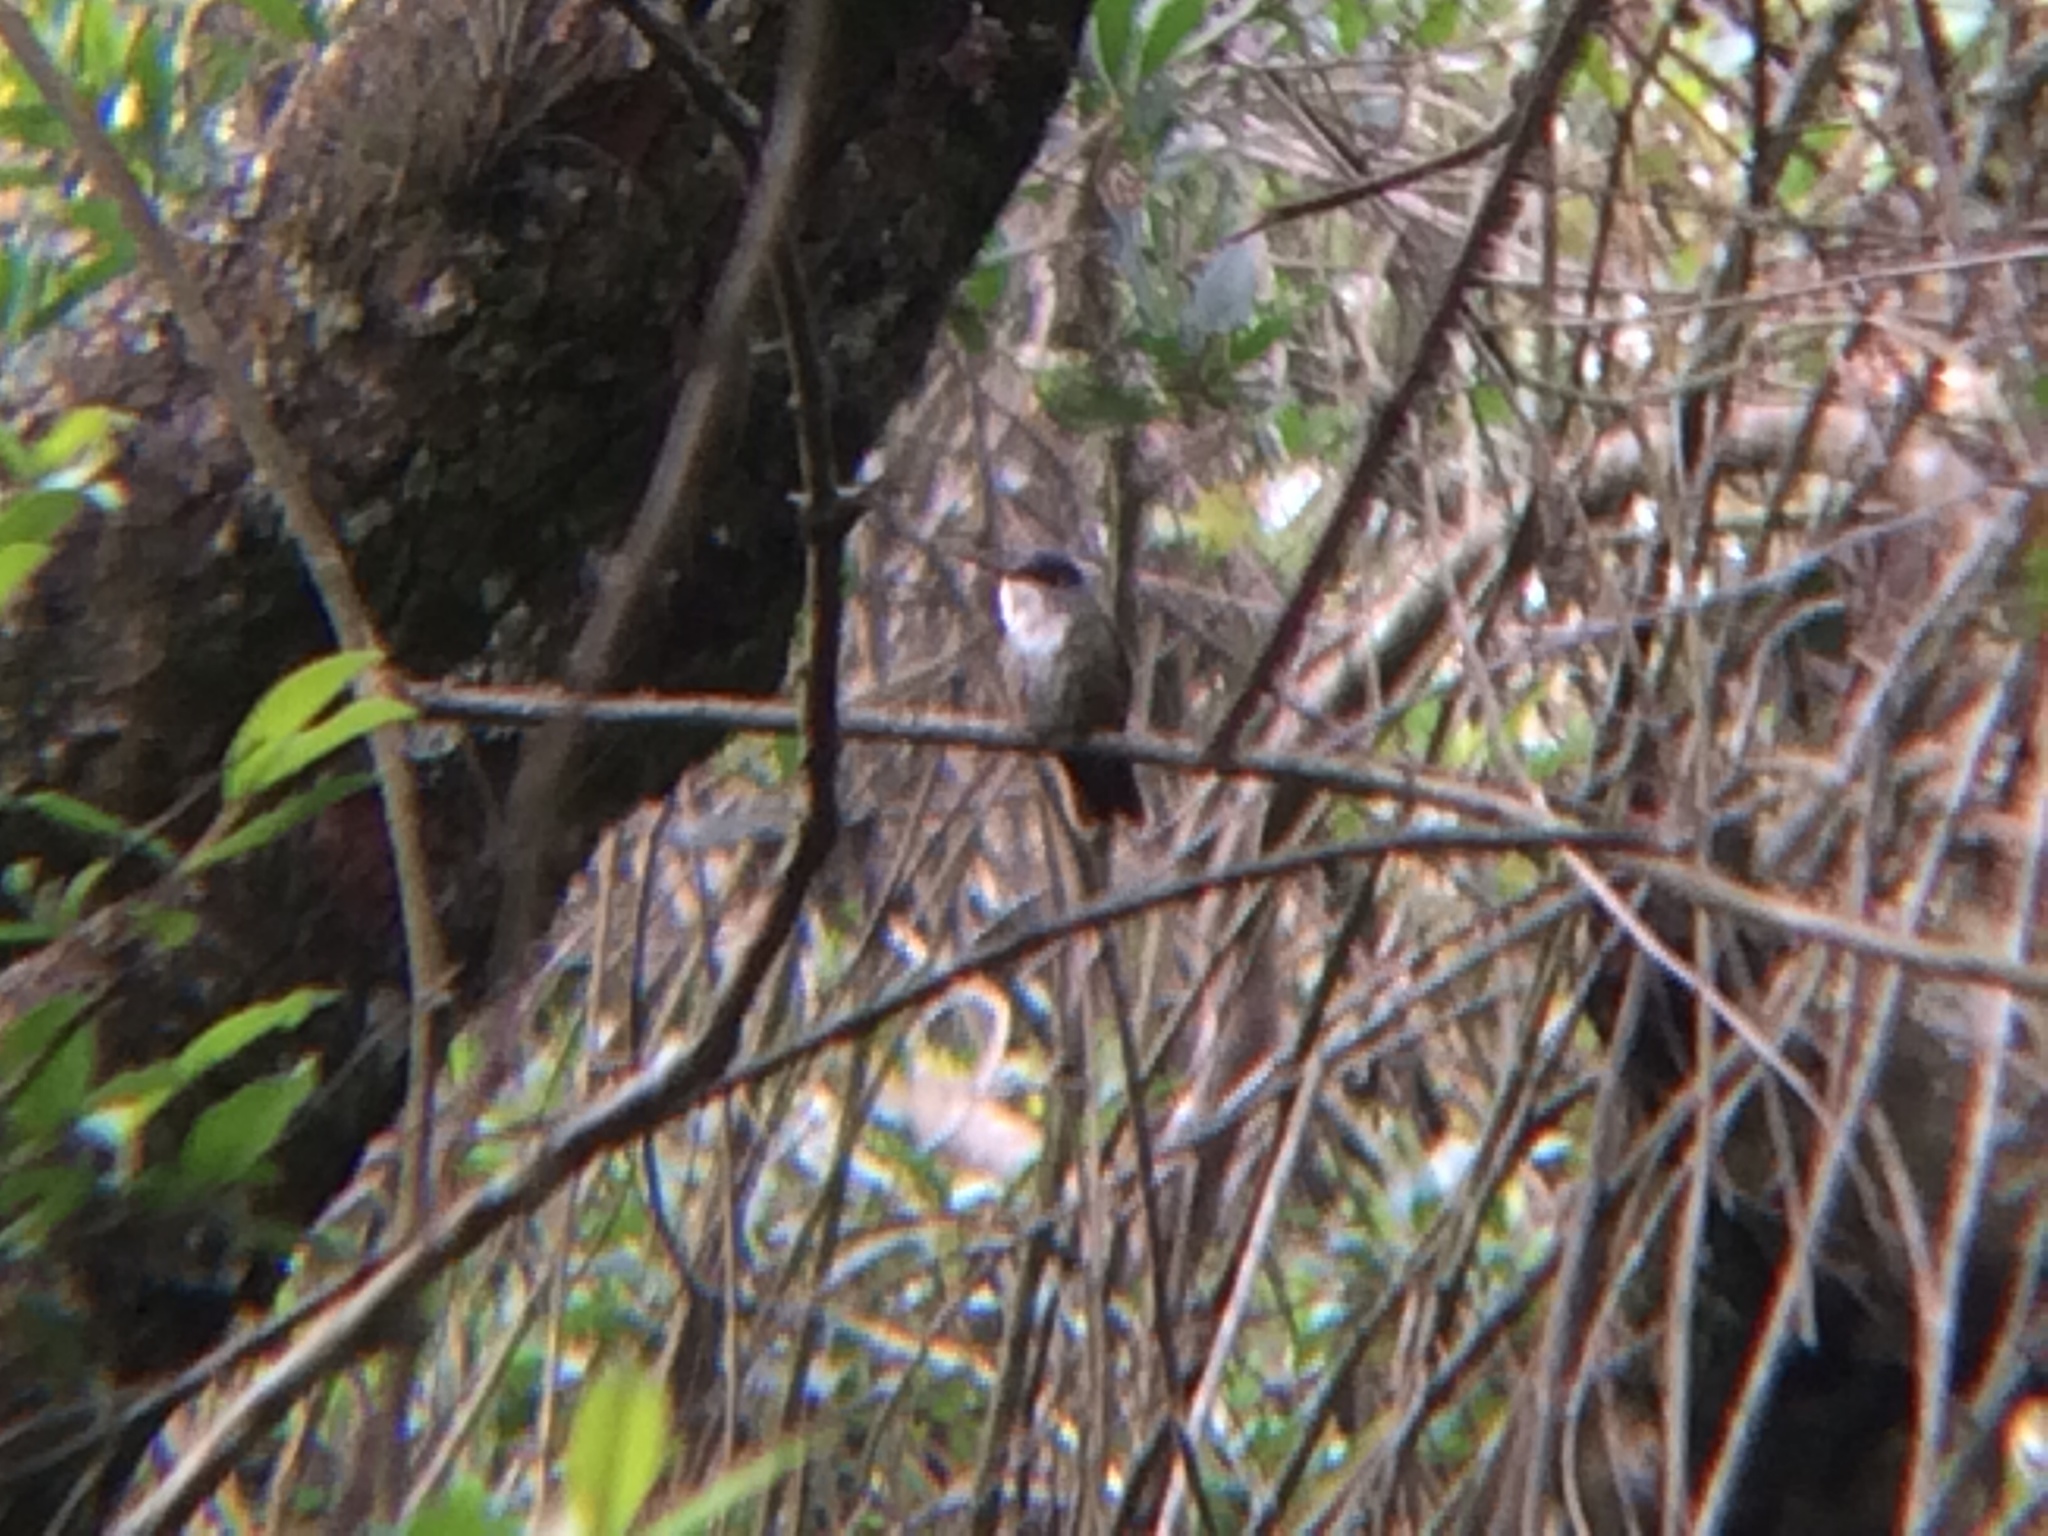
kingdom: Animalia
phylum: Chordata
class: Aves
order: Apodiformes
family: Trochilidae
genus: Saucerottia
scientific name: Saucerottia cyanocephala
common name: Azure-crowned hummingbird
